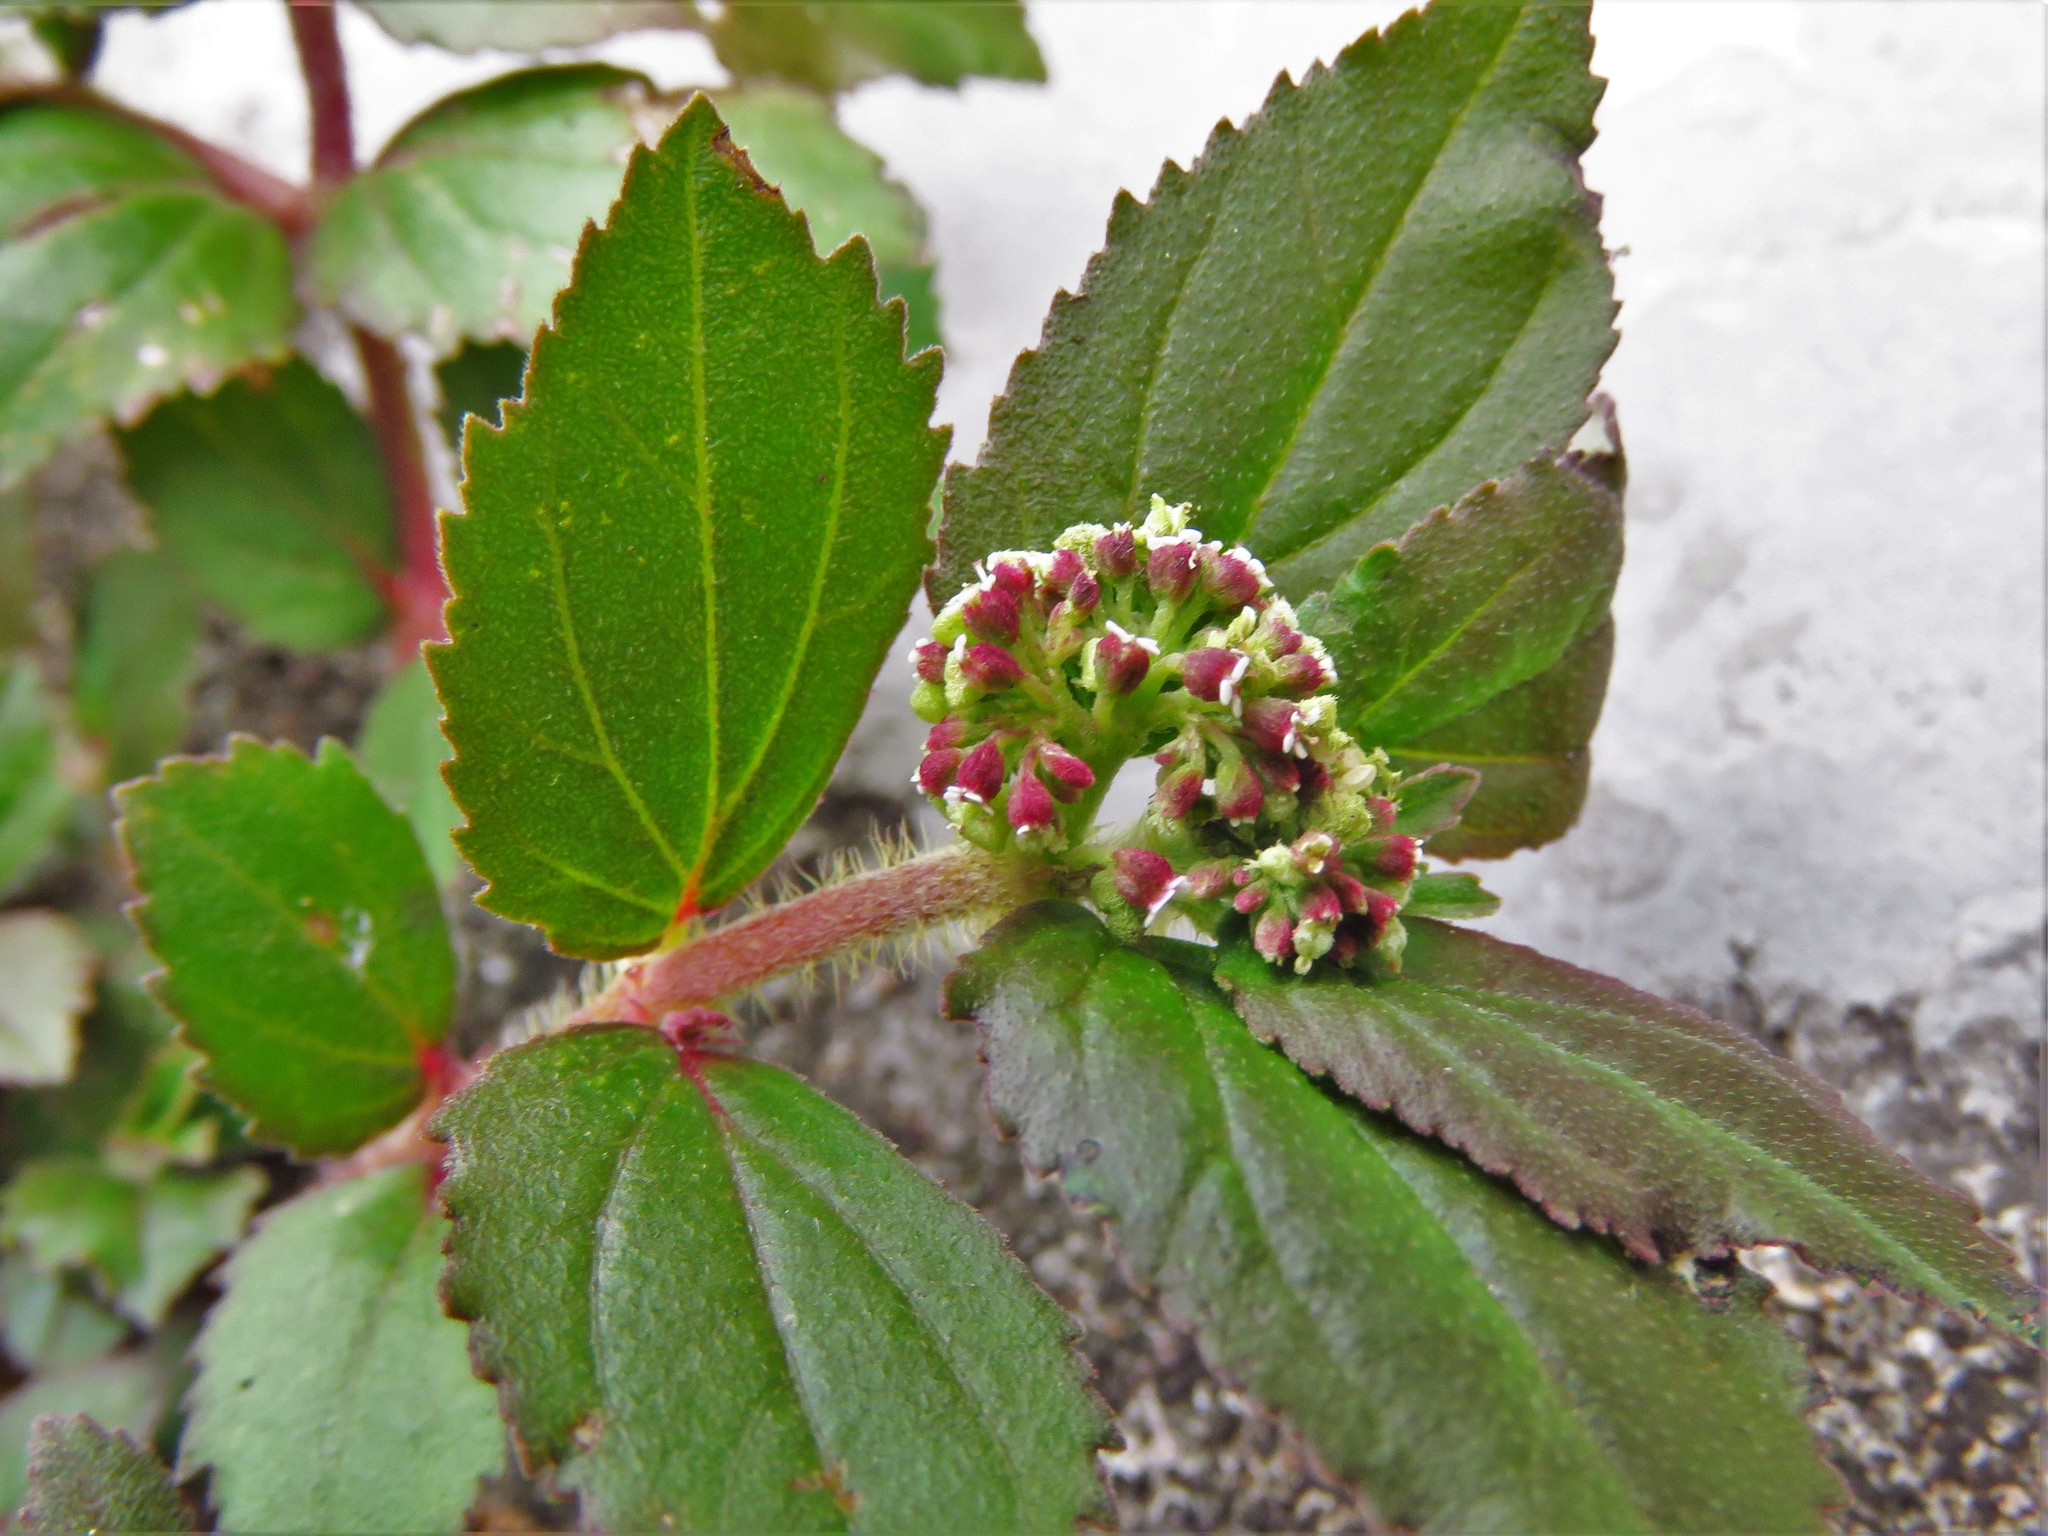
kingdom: Plantae
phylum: Tracheophyta
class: Magnoliopsida
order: Malpighiales
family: Euphorbiaceae
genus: Euphorbia
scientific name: Euphorbia hirta
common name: Pillpod sandmat
